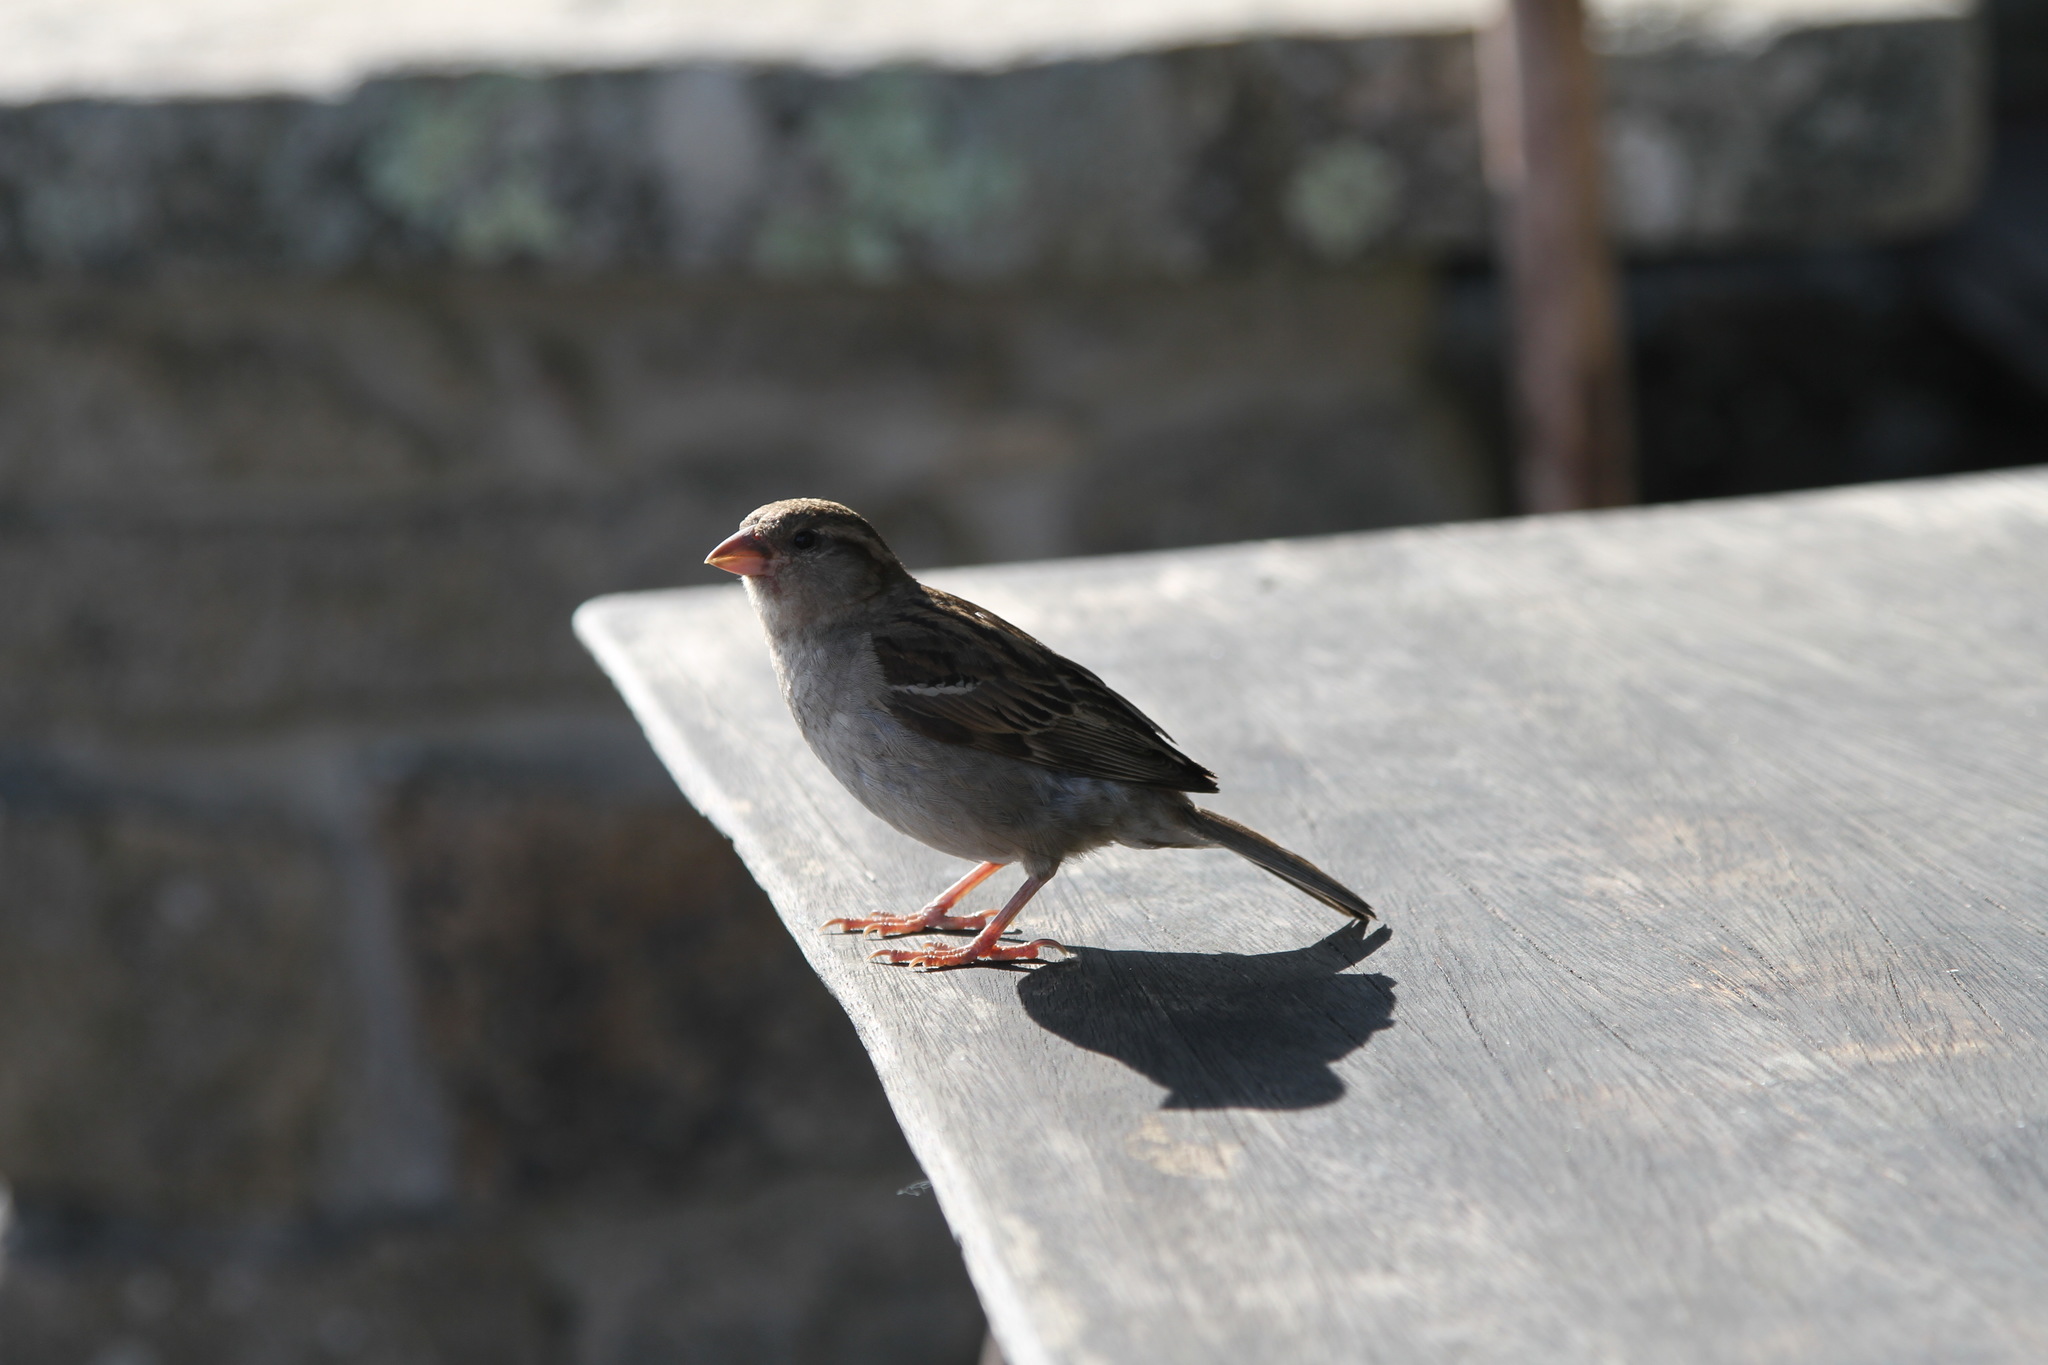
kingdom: Animalia
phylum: Chordata
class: Aves
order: Passeriformes
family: Passeridae
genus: Passer
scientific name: Passer domesticus
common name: House sparrow
